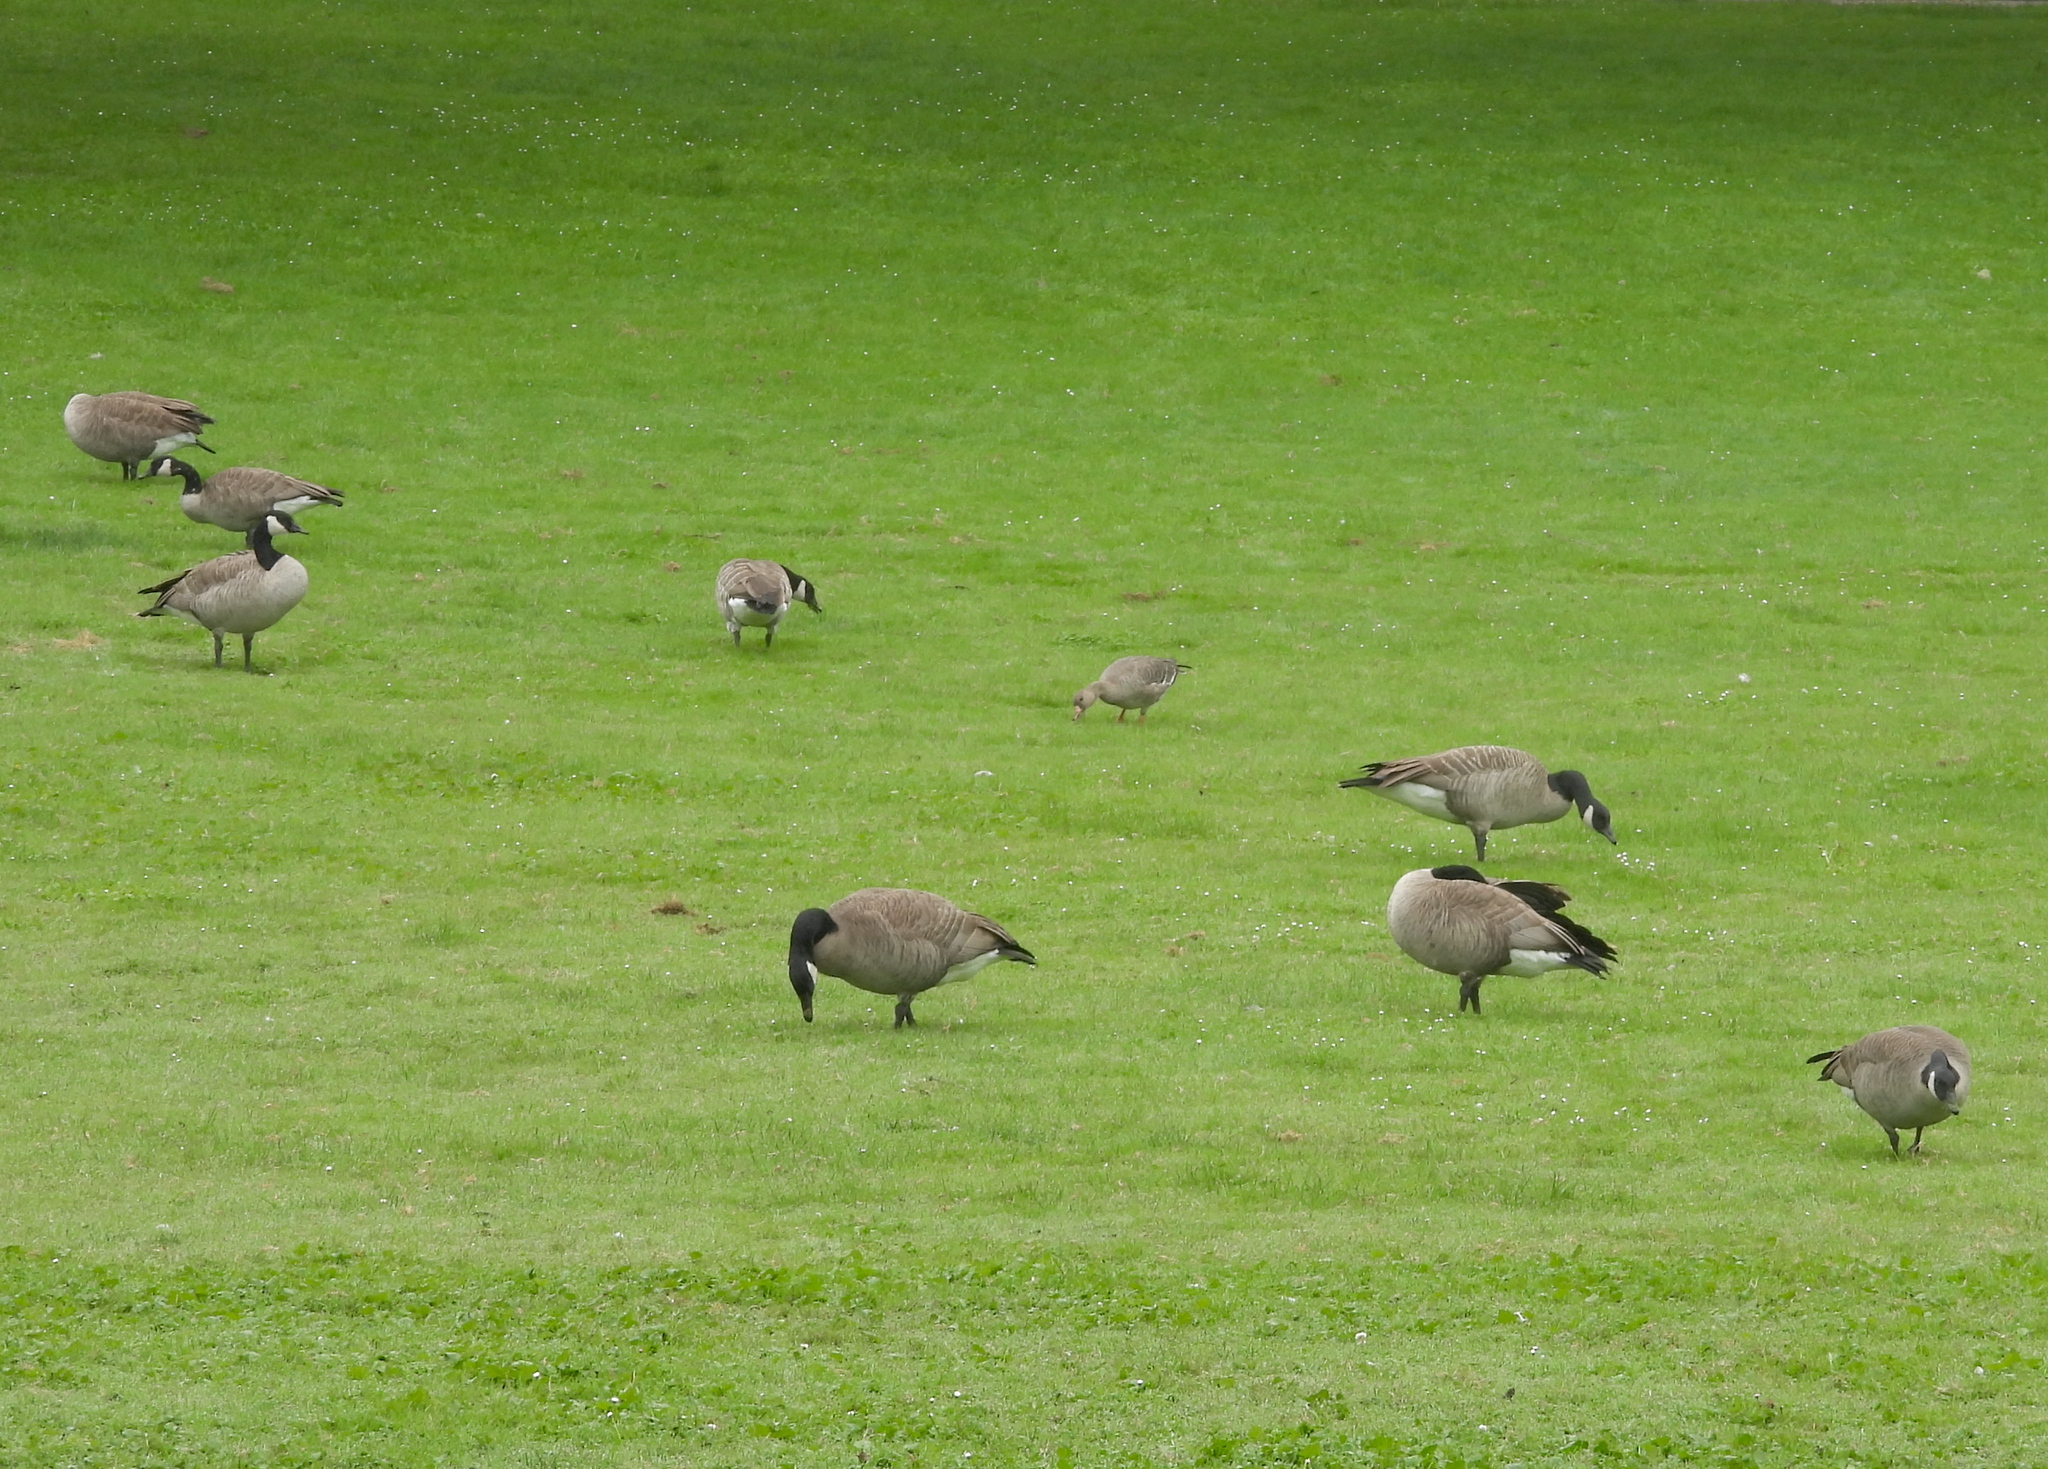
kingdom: Animalia
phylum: Chordata
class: Aves
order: Anseriformes
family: Anatidae
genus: Branta
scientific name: Branta canadensis
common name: Canada goose
